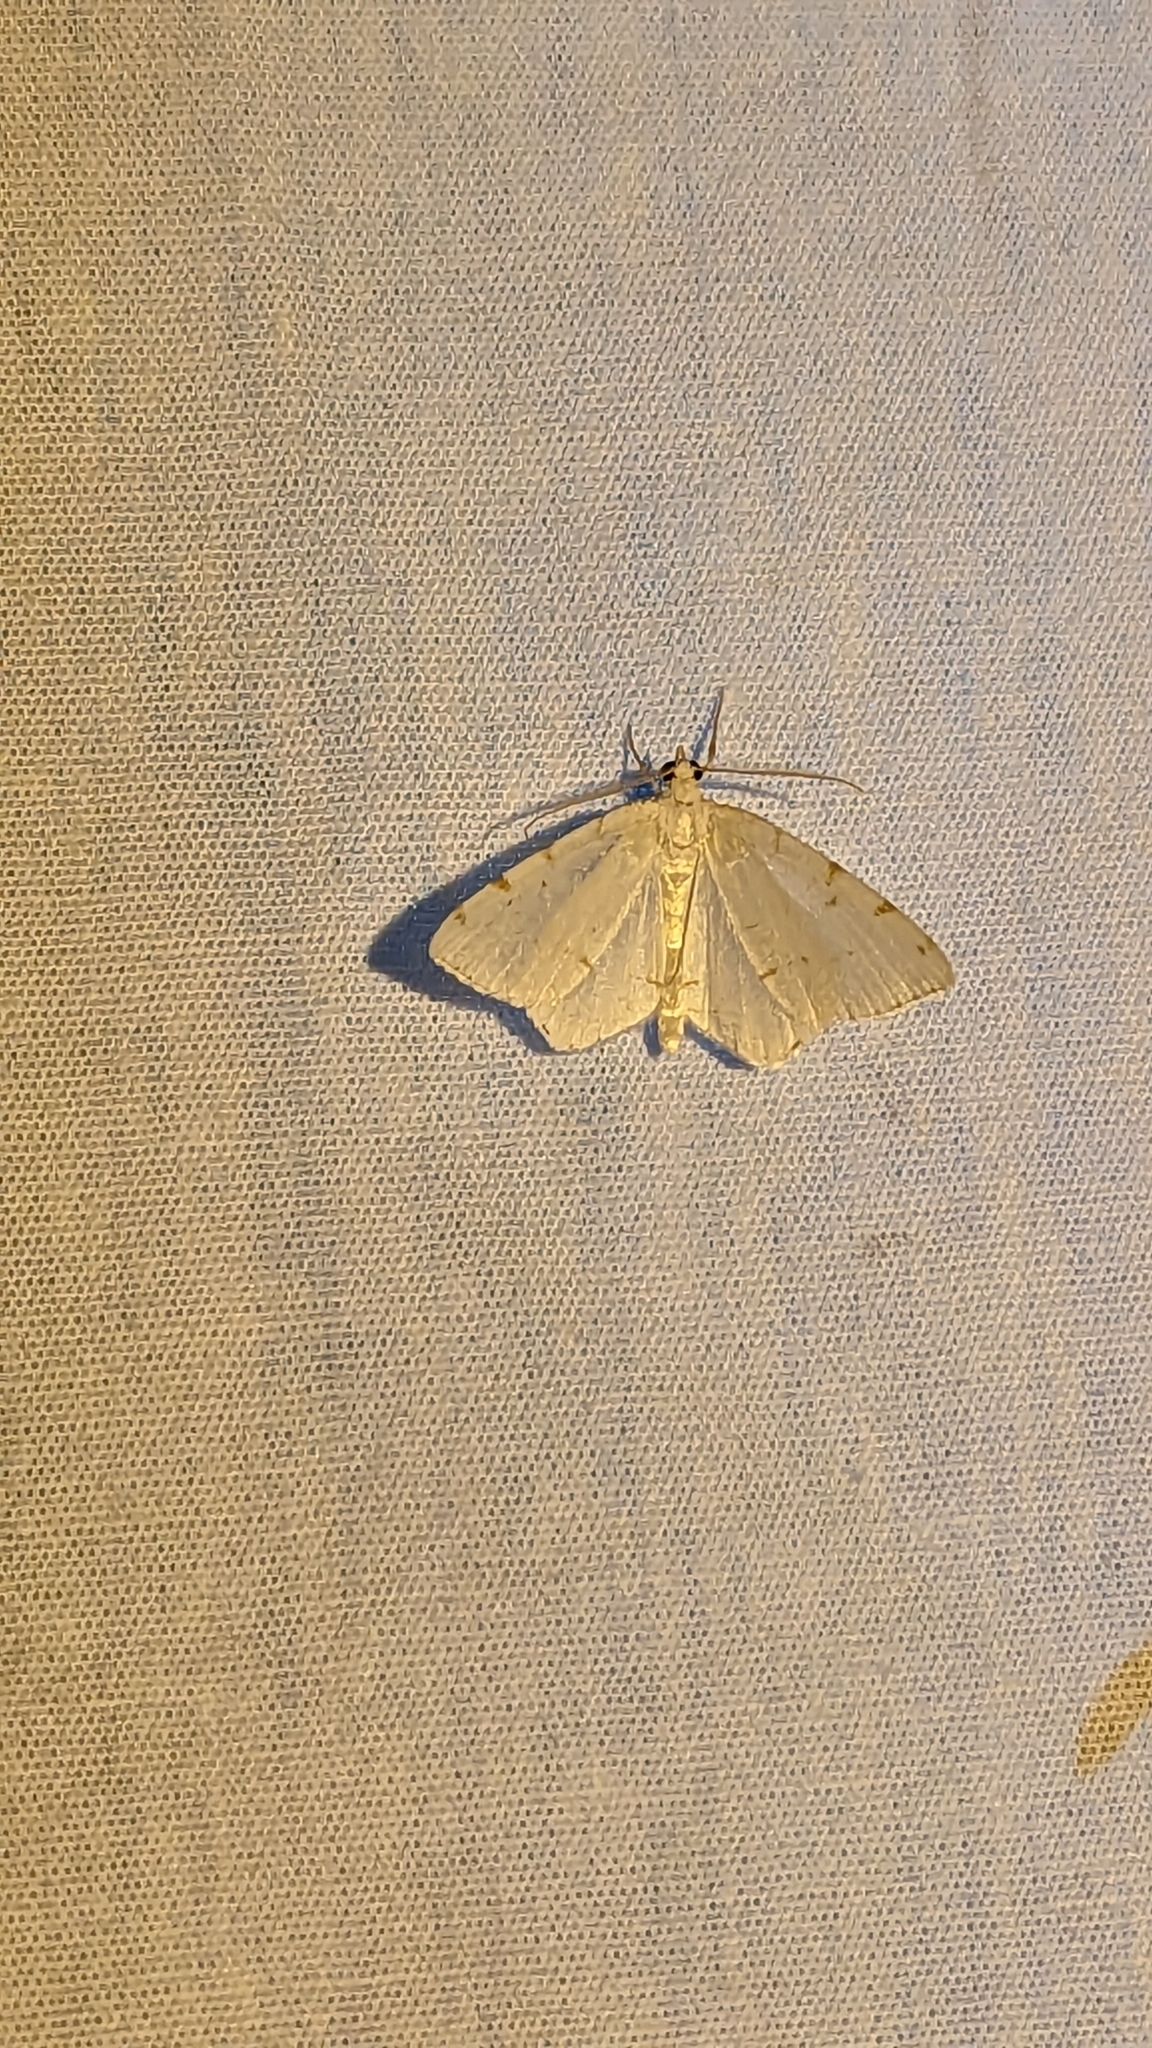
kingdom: Animalia
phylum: Arthropoda
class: Insecta
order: Lepidoptera
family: Geometridae
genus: Macaria
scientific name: Macaria pustularia
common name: Lesser maple spanworm moth
